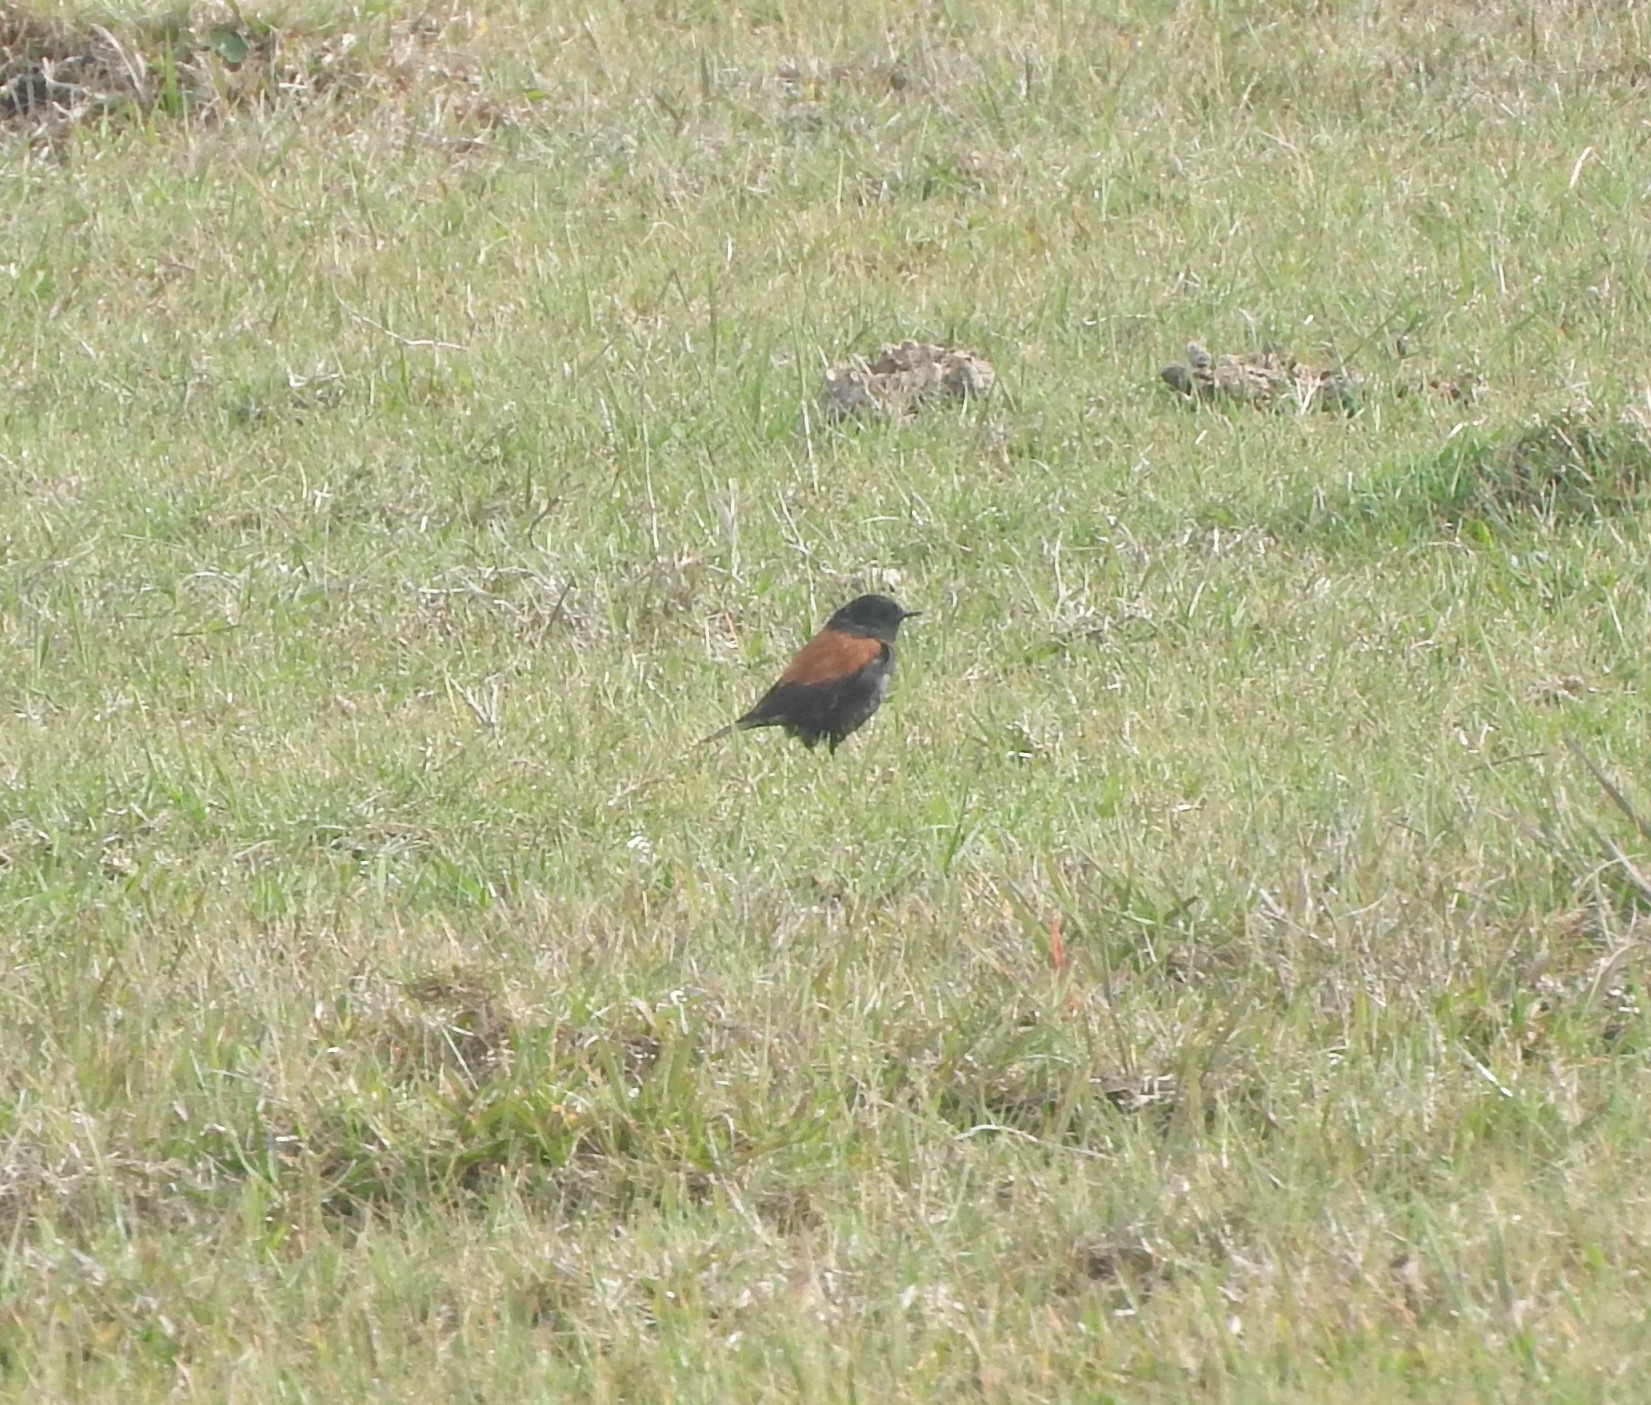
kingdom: Animalia
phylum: Chordata
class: Aves
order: Passeriformes
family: Tyrannidae
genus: Lessonia
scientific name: Lessonia rufa
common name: Austral negrito
